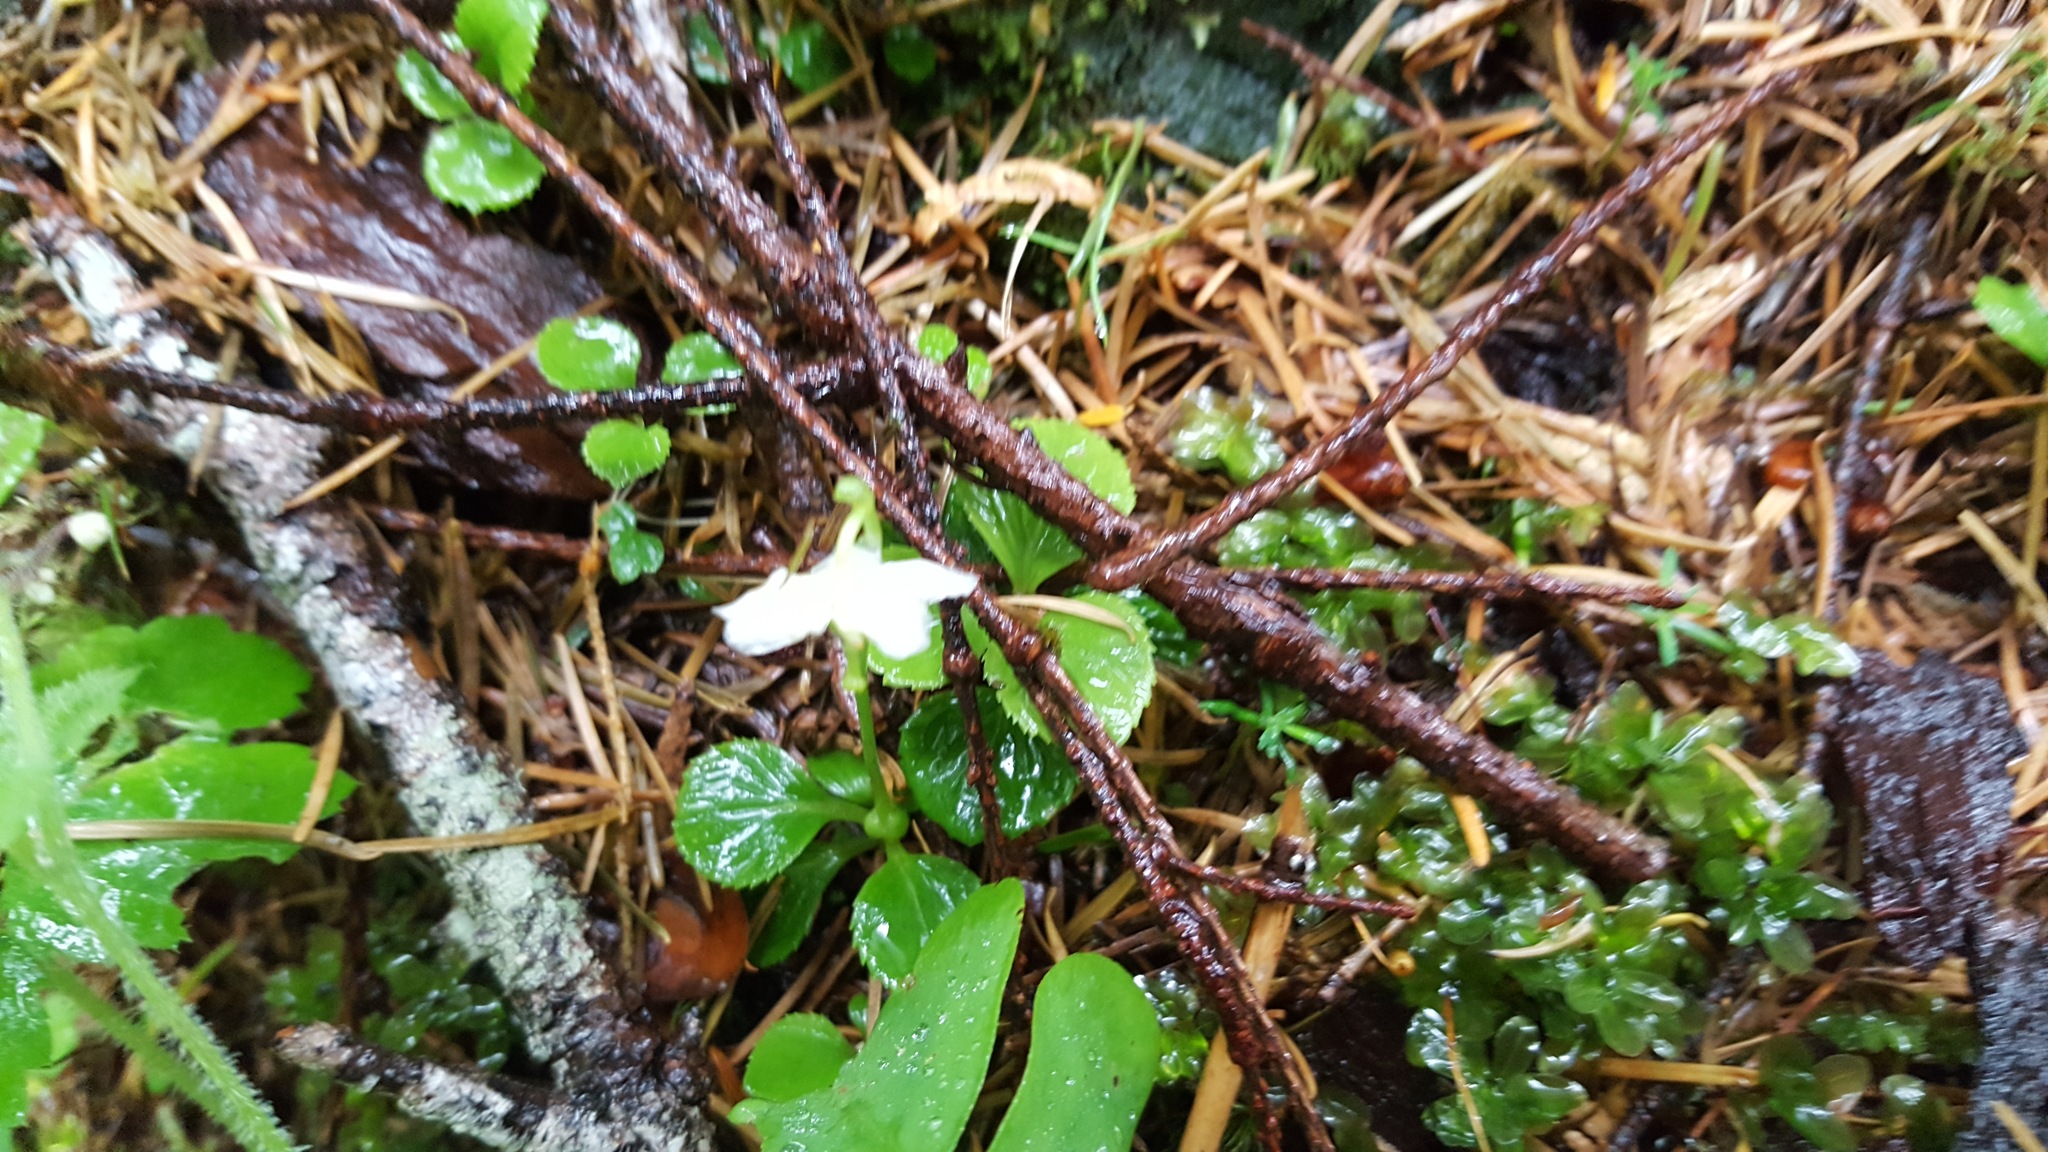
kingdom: Plantae
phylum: Tracheophyta
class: Magnoliopsida
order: Ericales
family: Ericaceae
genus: Moneses
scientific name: Moneses uniflora
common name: One-flowered wintergreen
